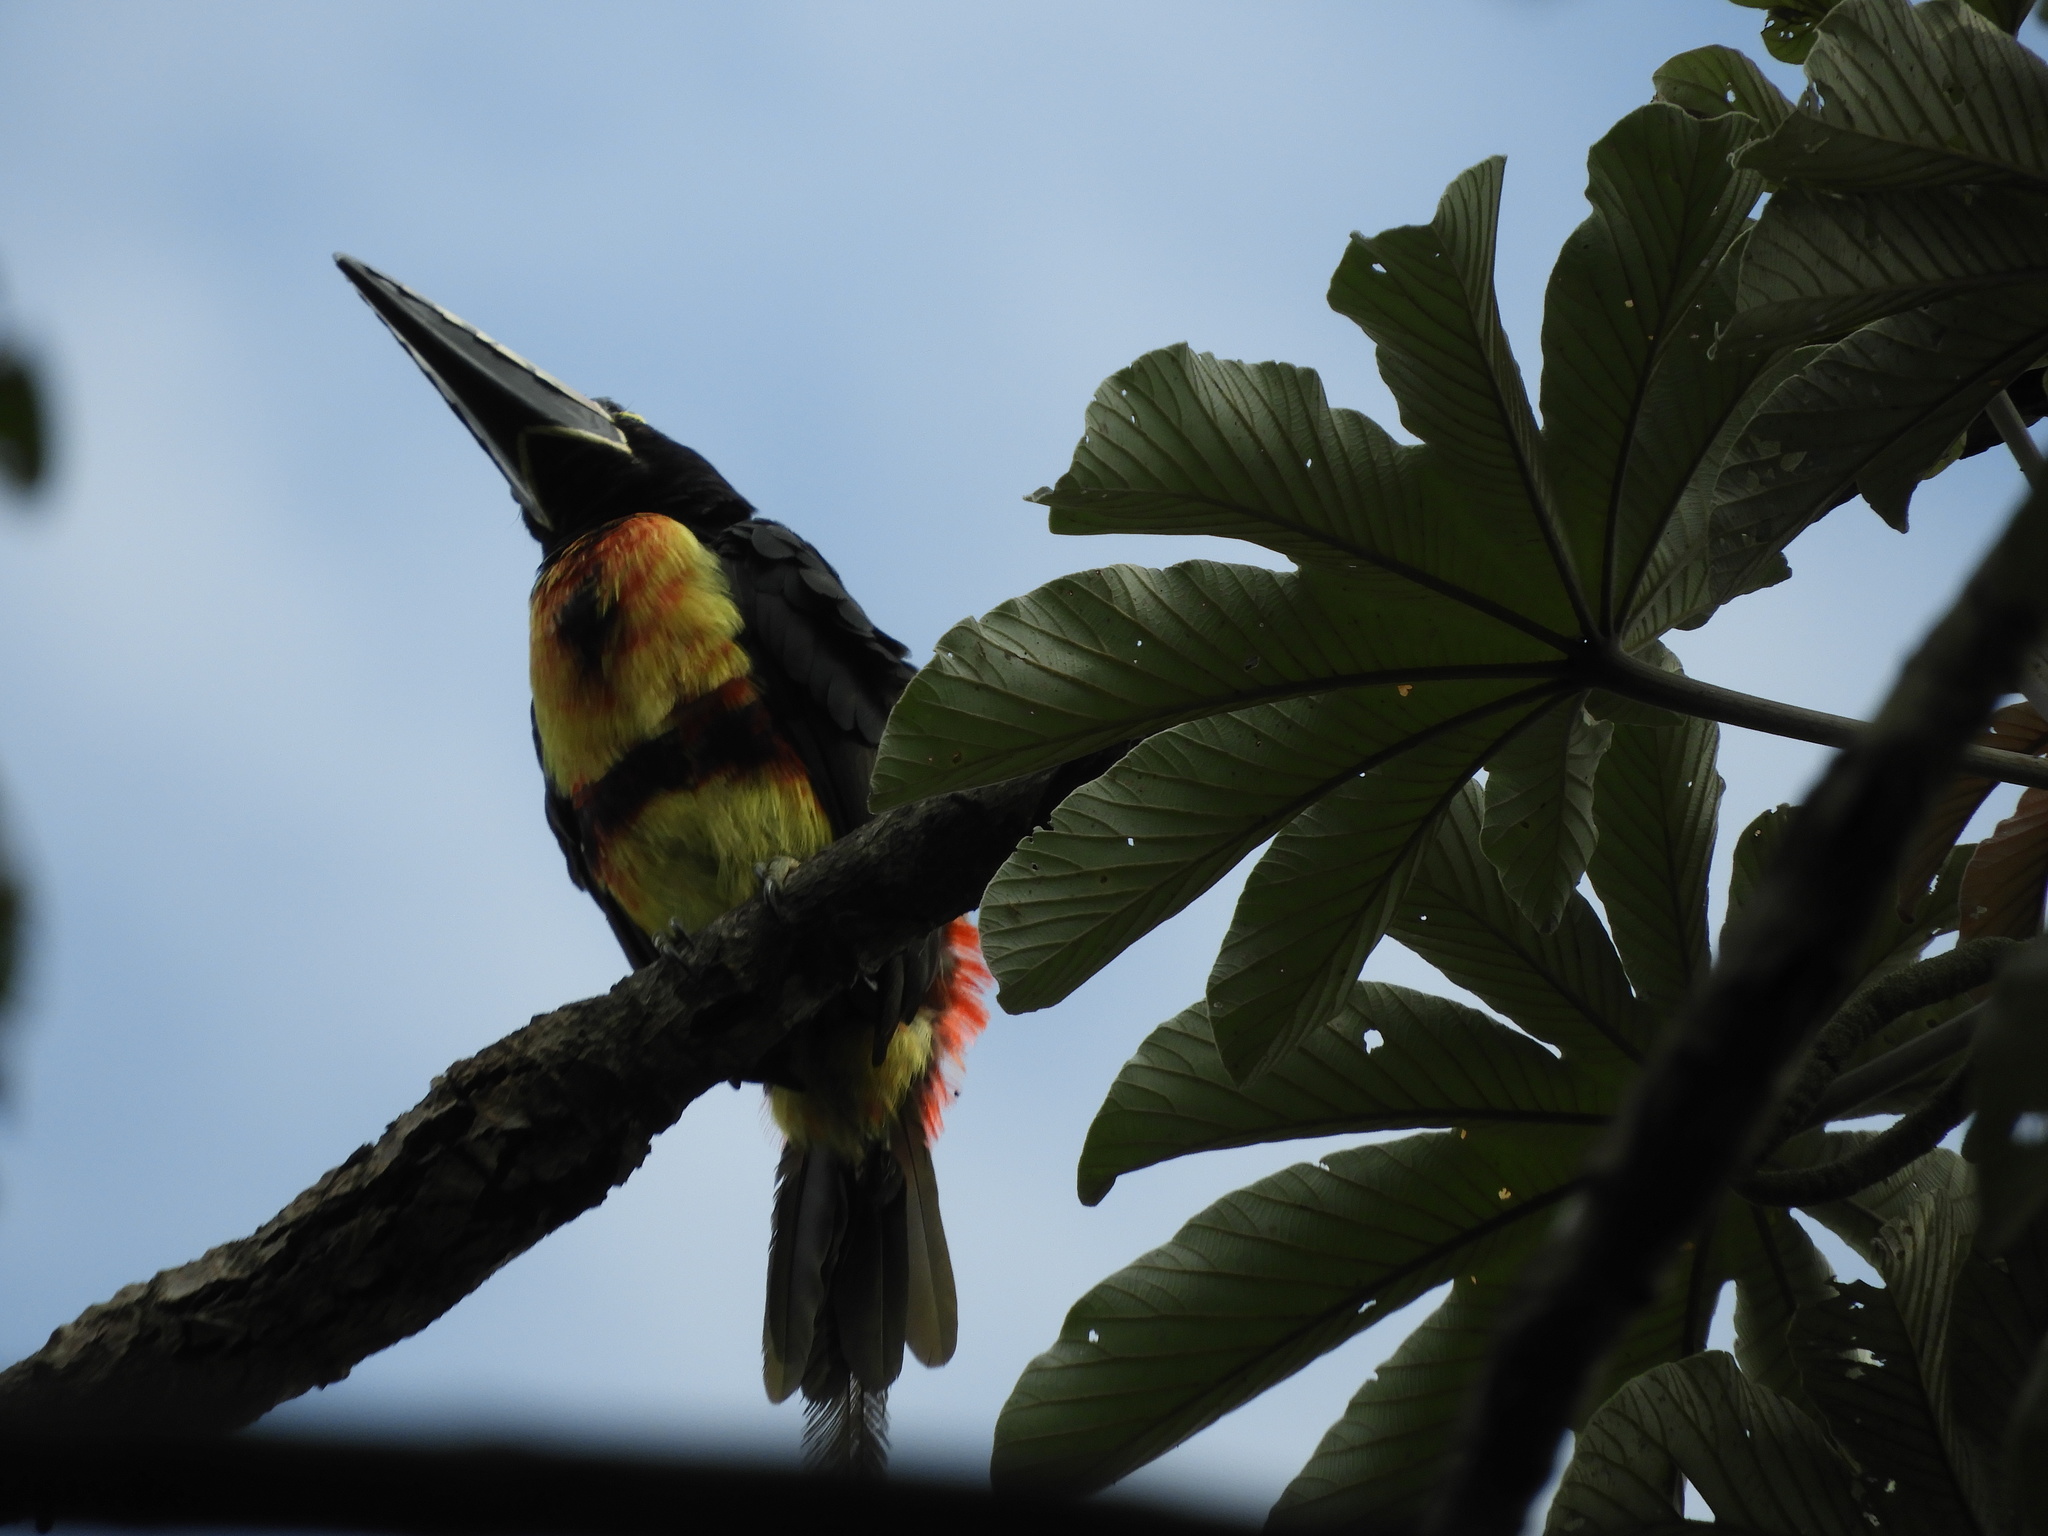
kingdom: Animalia
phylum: Chordata
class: Aves
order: Piciformes
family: Ramphastidae
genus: Pteroglossus
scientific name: Pteroglossus torquatus
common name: Collared aracari
